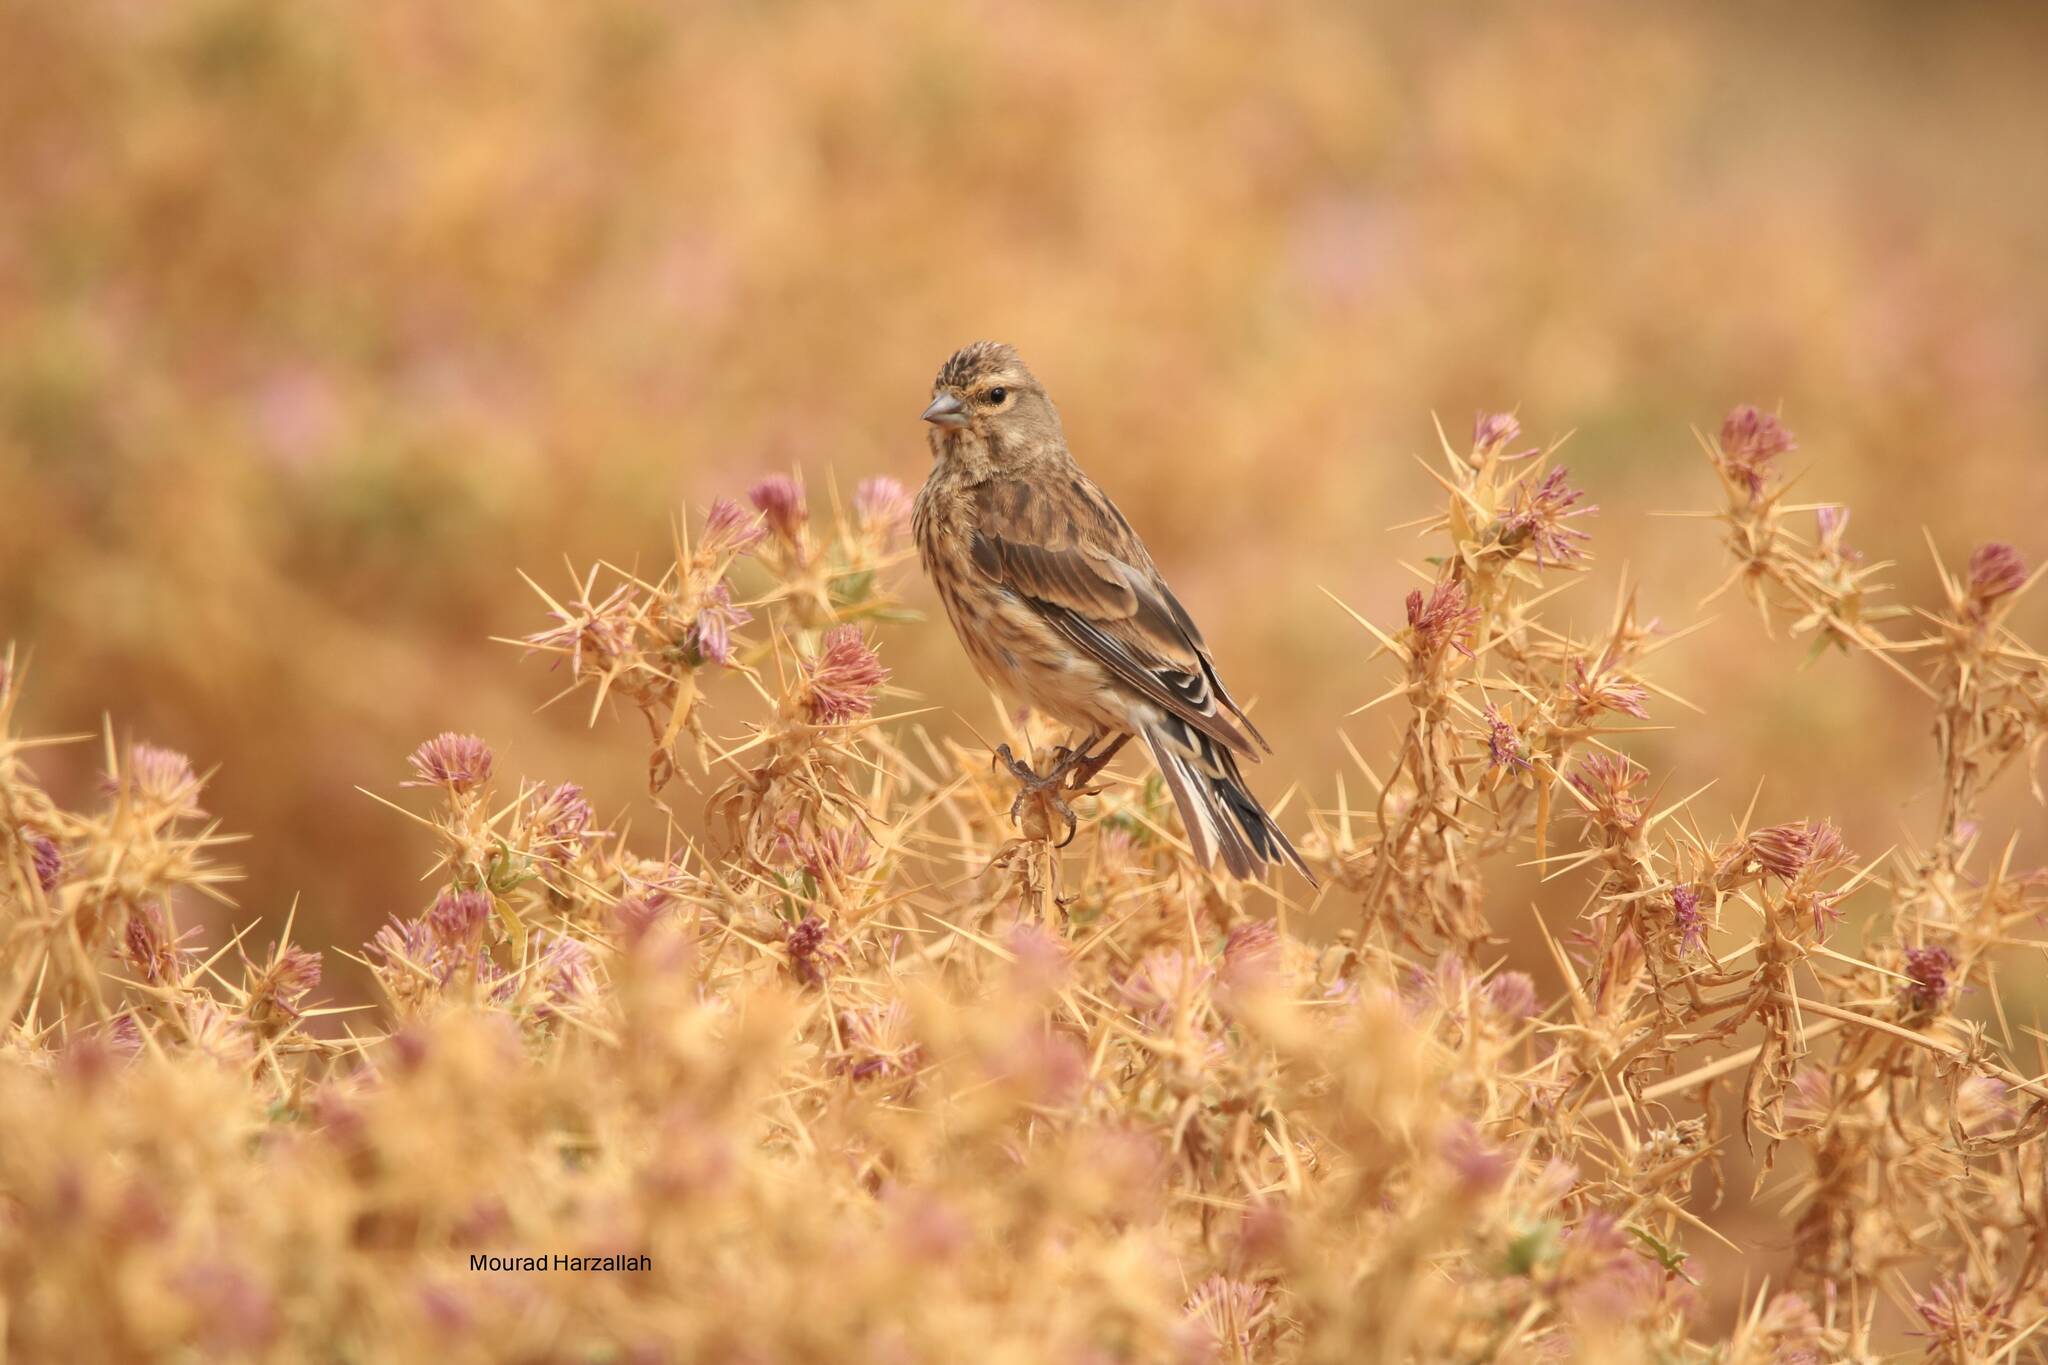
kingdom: Animalia
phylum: Chordata
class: Aves
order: Passeriformes
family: Fringillidae
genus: Linaria
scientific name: Linaria cannabina
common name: Common linnet
